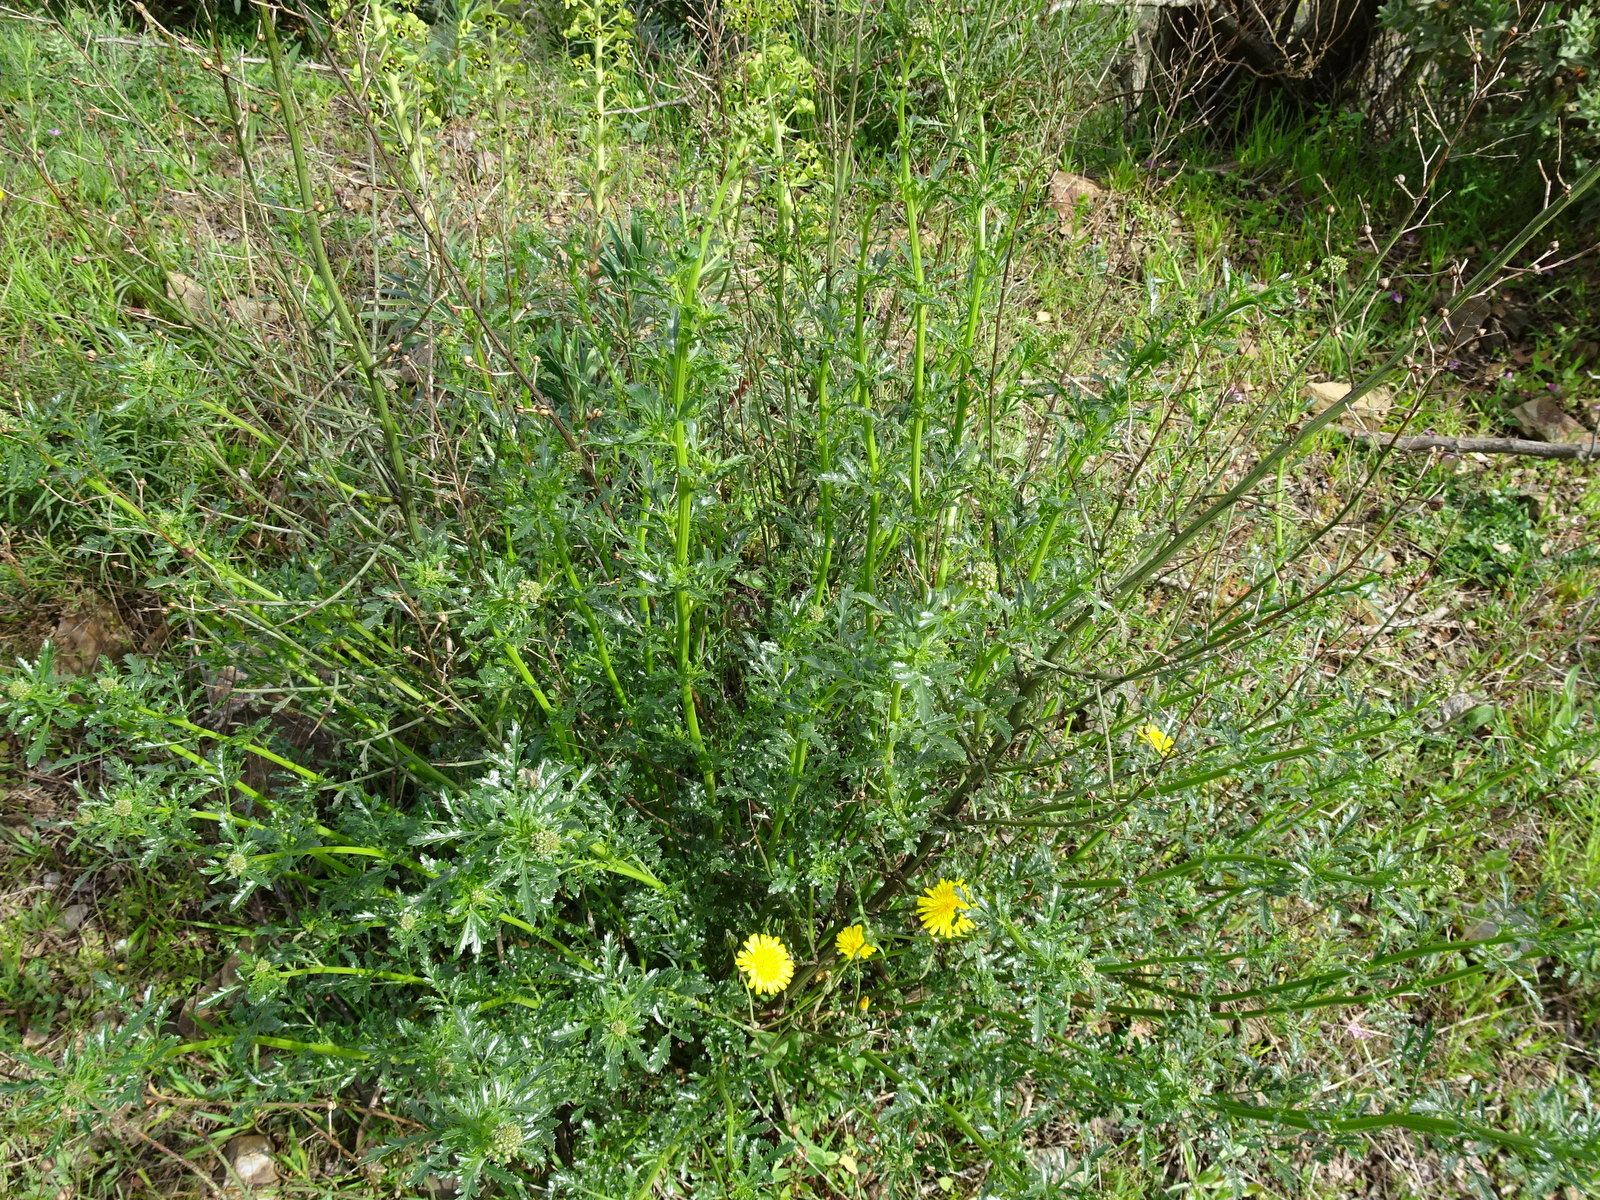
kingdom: Plantae
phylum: Tracheophyta
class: Magnoliopsida
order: Lamiales
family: Scrophulariaceae
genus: Scrophularia
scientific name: Scrophularia canina
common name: French figwort
